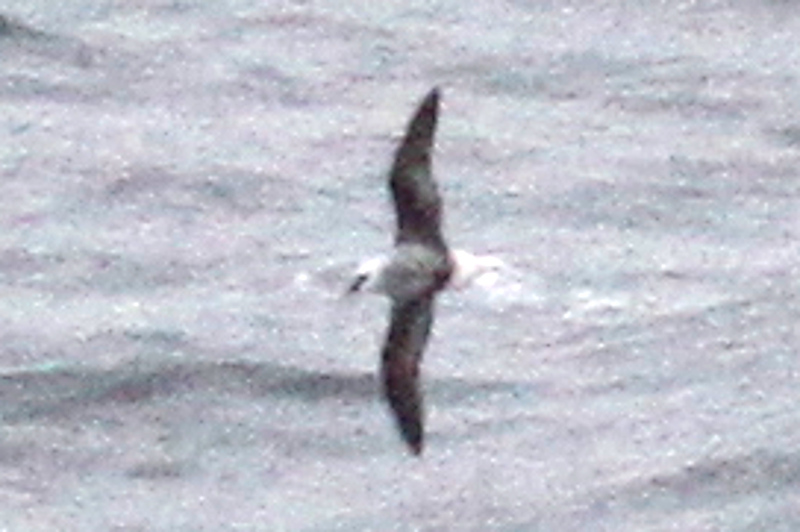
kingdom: Animalia
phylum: Chordata
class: Aves
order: Procellariiformes
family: Procellariidae
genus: Pterodroma
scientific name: Pterodroma lessonii
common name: White-headed petrel
